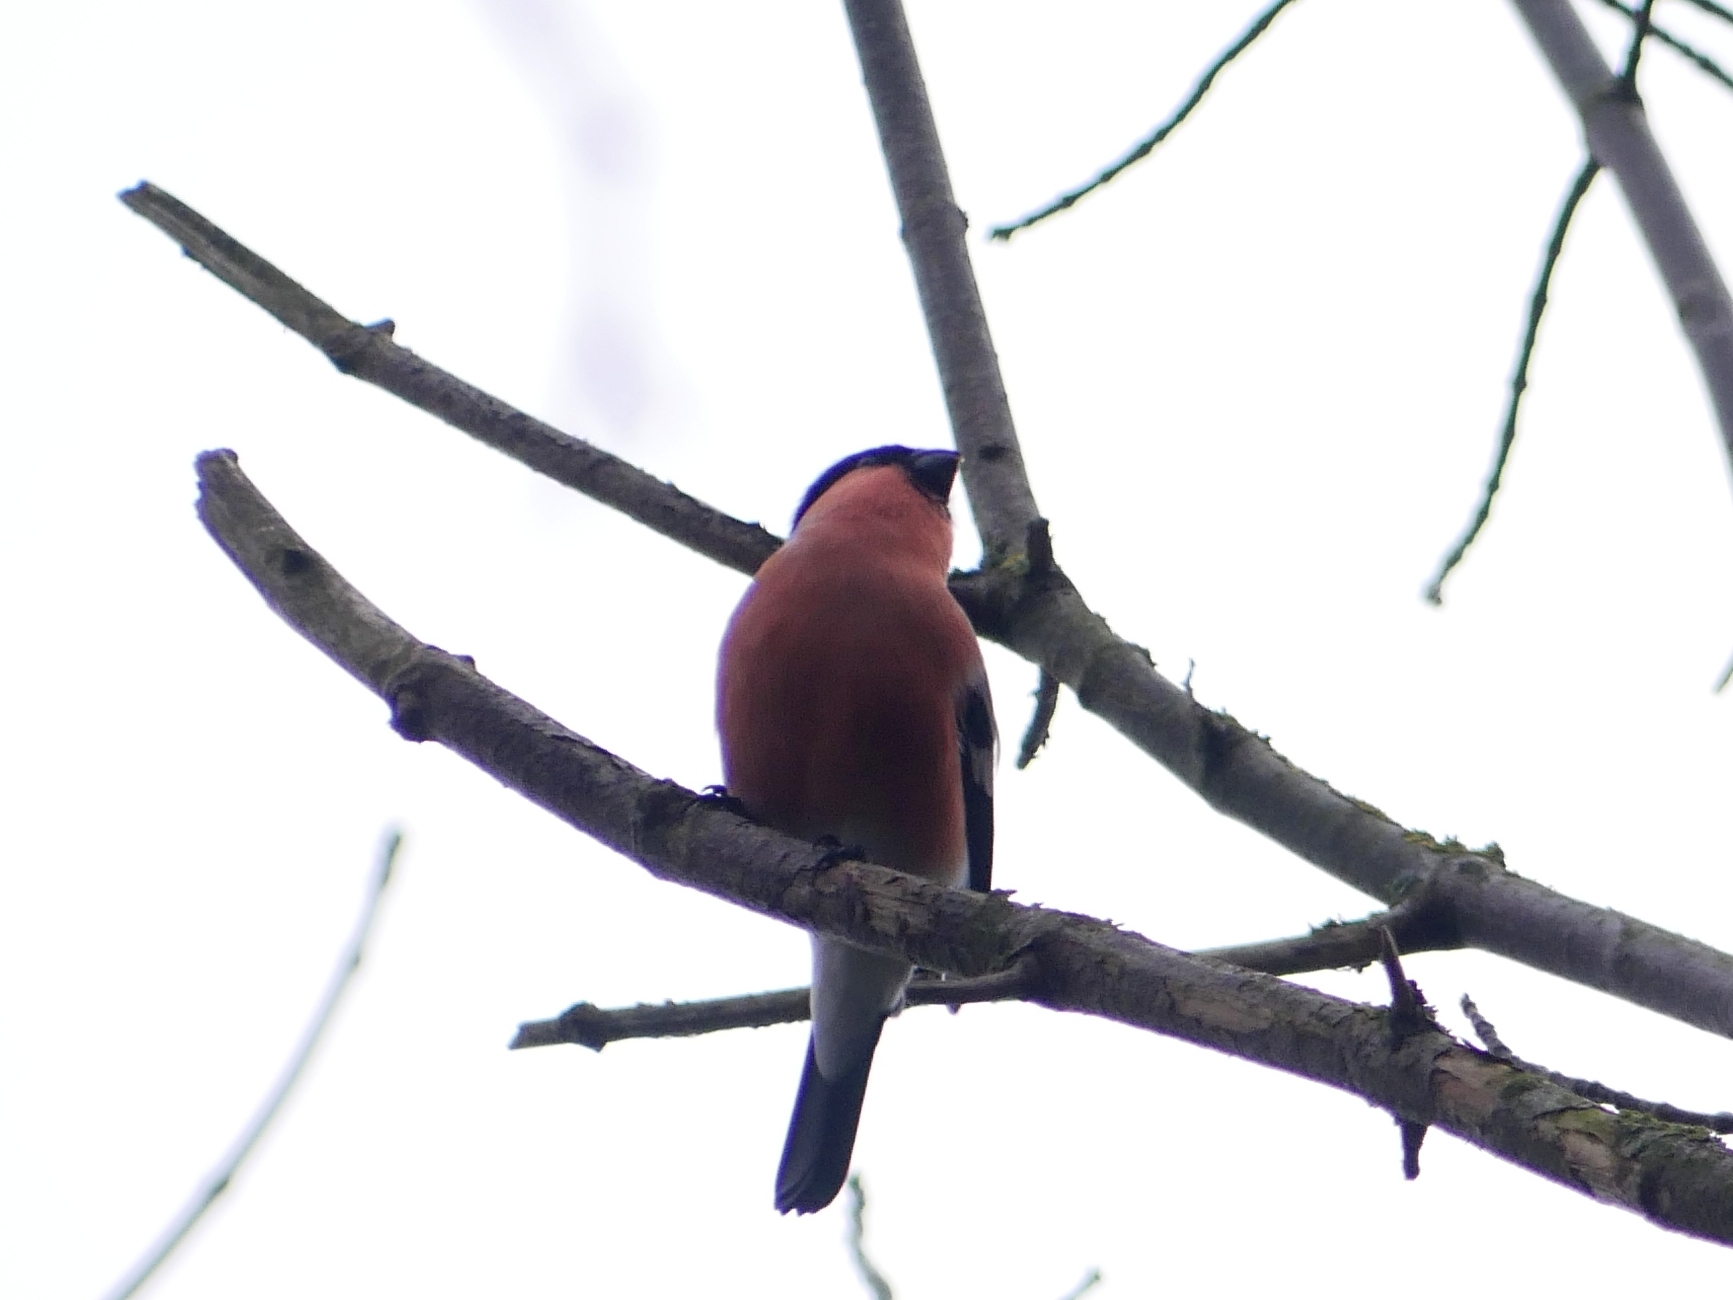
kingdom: Animalia
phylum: Chordata
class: Aves
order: Passeriformes
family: Fringillidae
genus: Pyrrhula
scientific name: Pyrrhula pyrrhula
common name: Eurasian bullfinch
